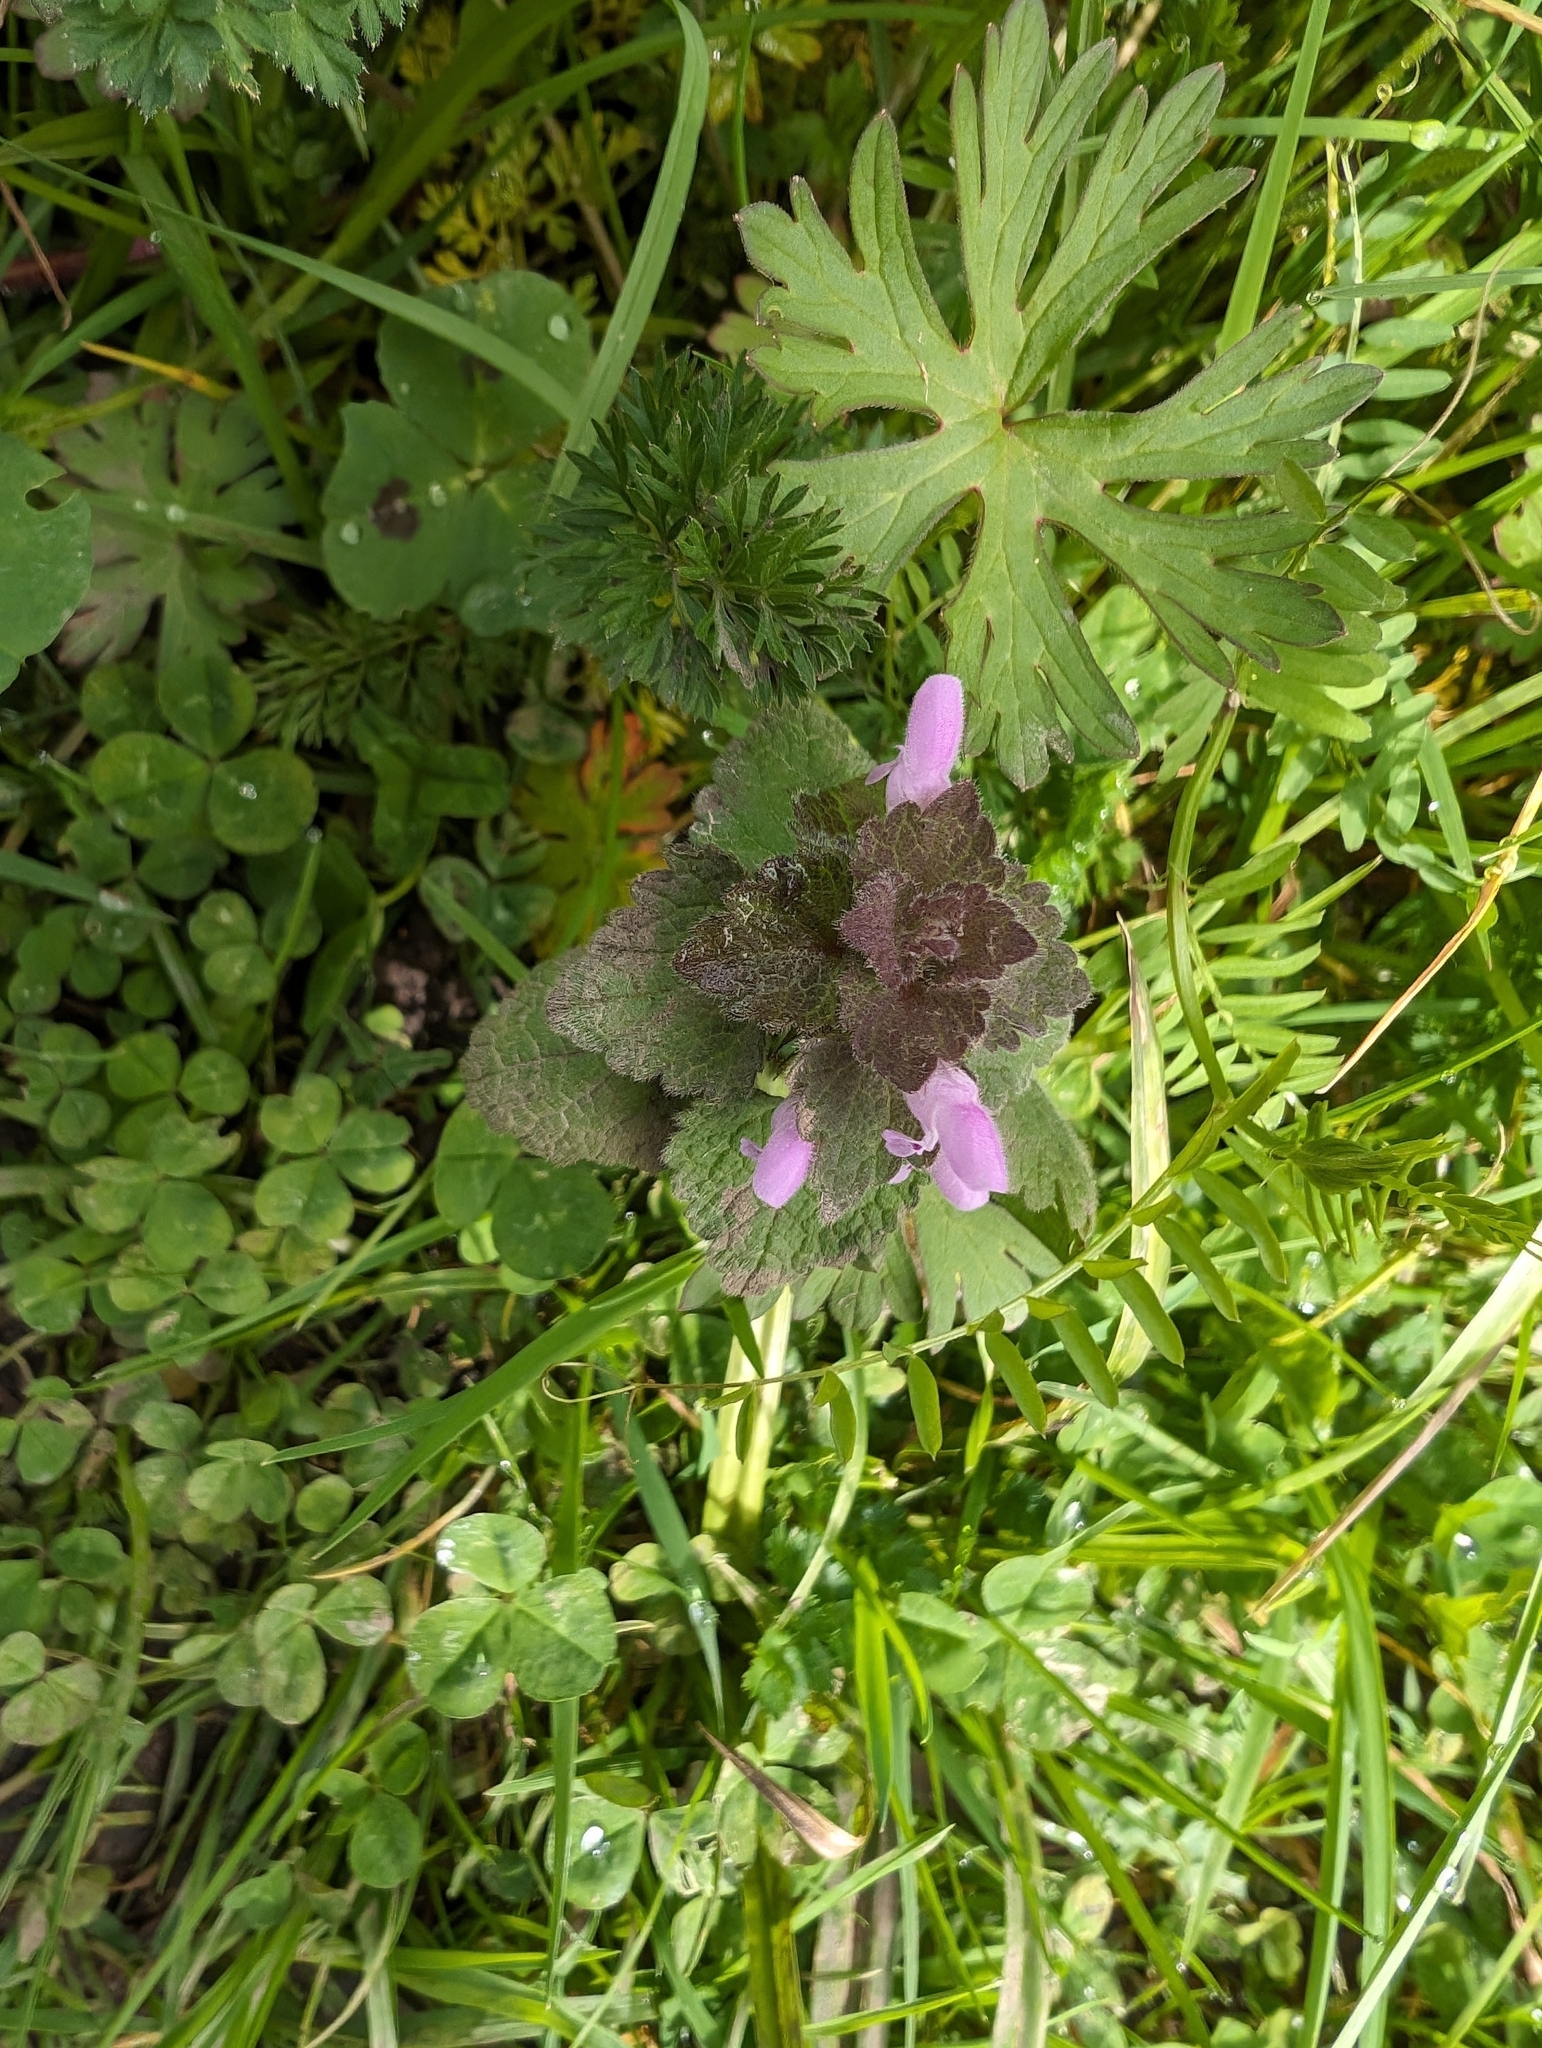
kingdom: Plantae
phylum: Tracheophyta
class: Magnoliopsida
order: Lamiales
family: Lamiaceae
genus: Lamium
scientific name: Lamium purpureum
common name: Red dead-nettle
